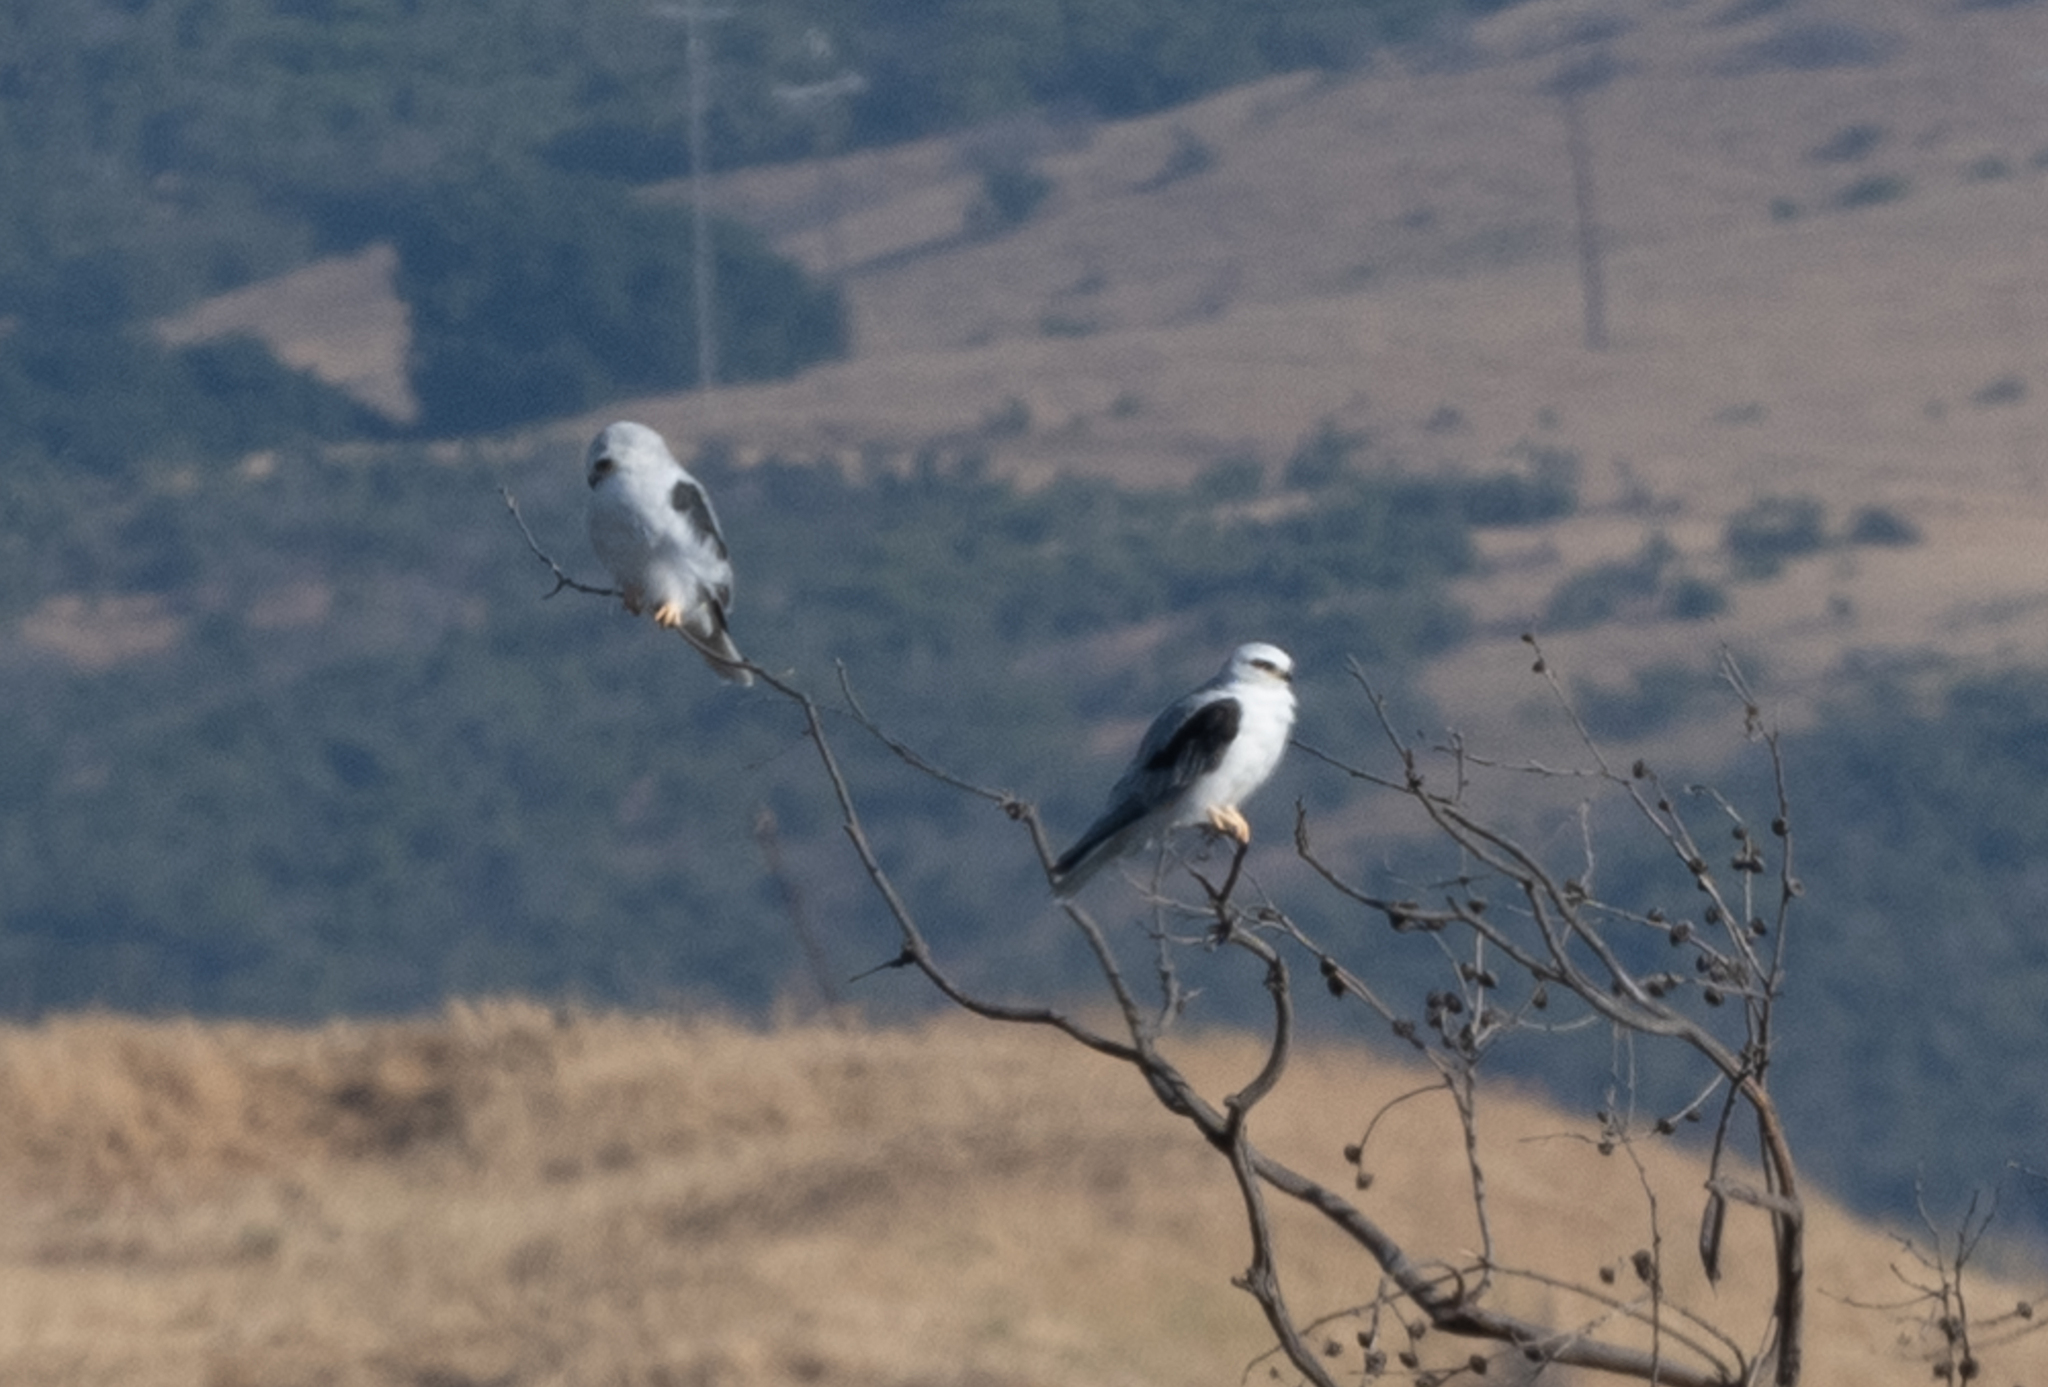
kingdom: Animalia
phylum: Chordata
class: Aves
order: Accipitriformes
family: Accipitridae
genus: Elanus
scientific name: Elanus leucurus
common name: White-tailed kite
